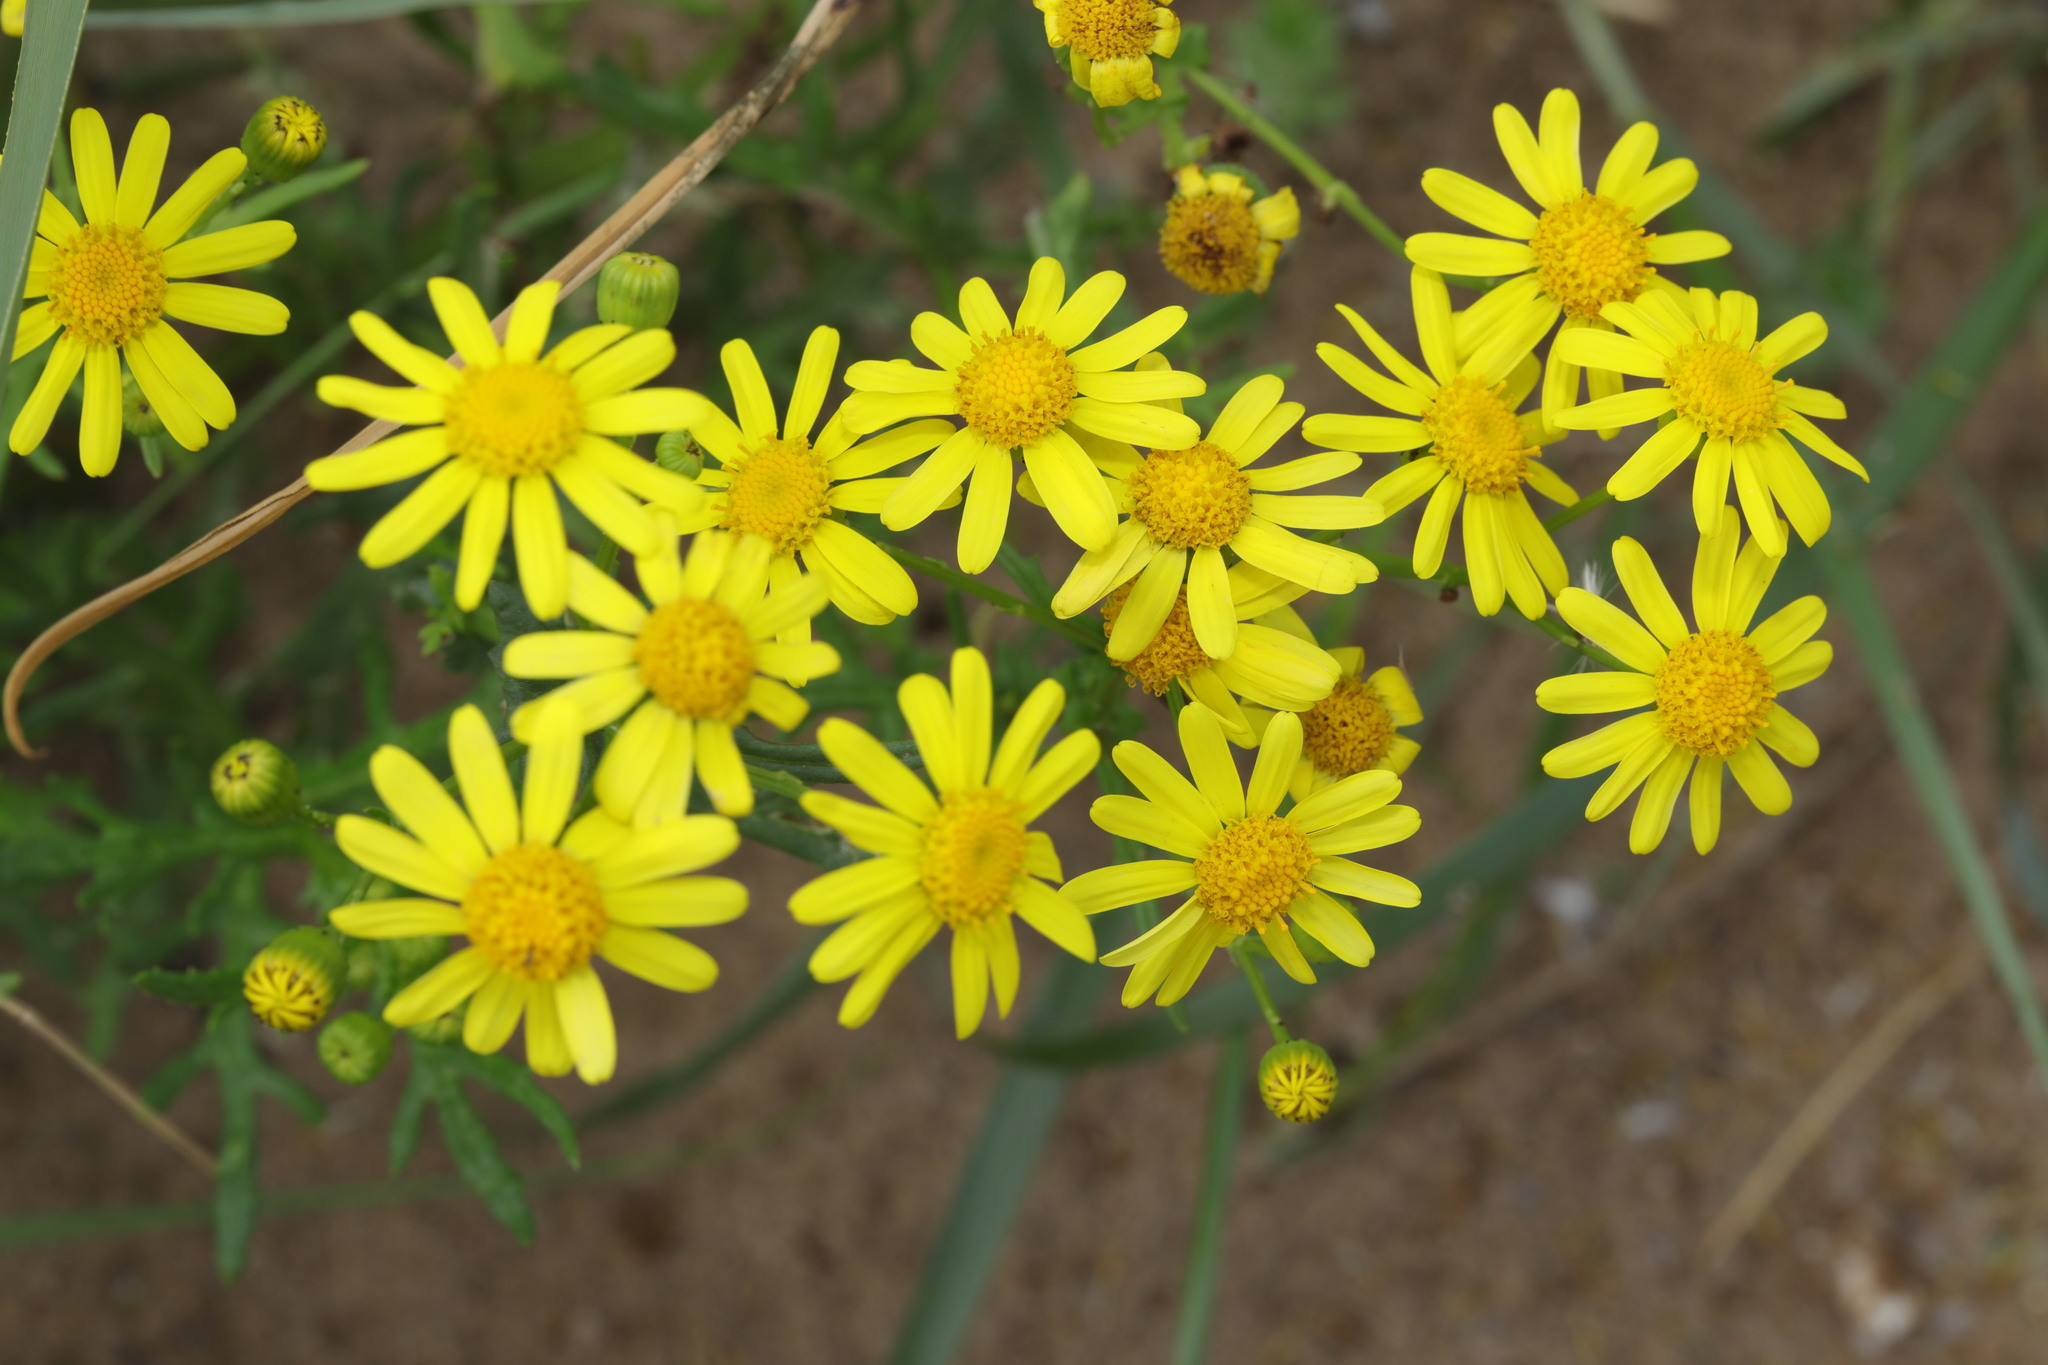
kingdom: Plantae
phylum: Tracheophyta
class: Magnoliopsida
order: Asterales
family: Asteraceae
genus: Senecio
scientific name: Senecio squalidus
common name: Oxford ragwort
